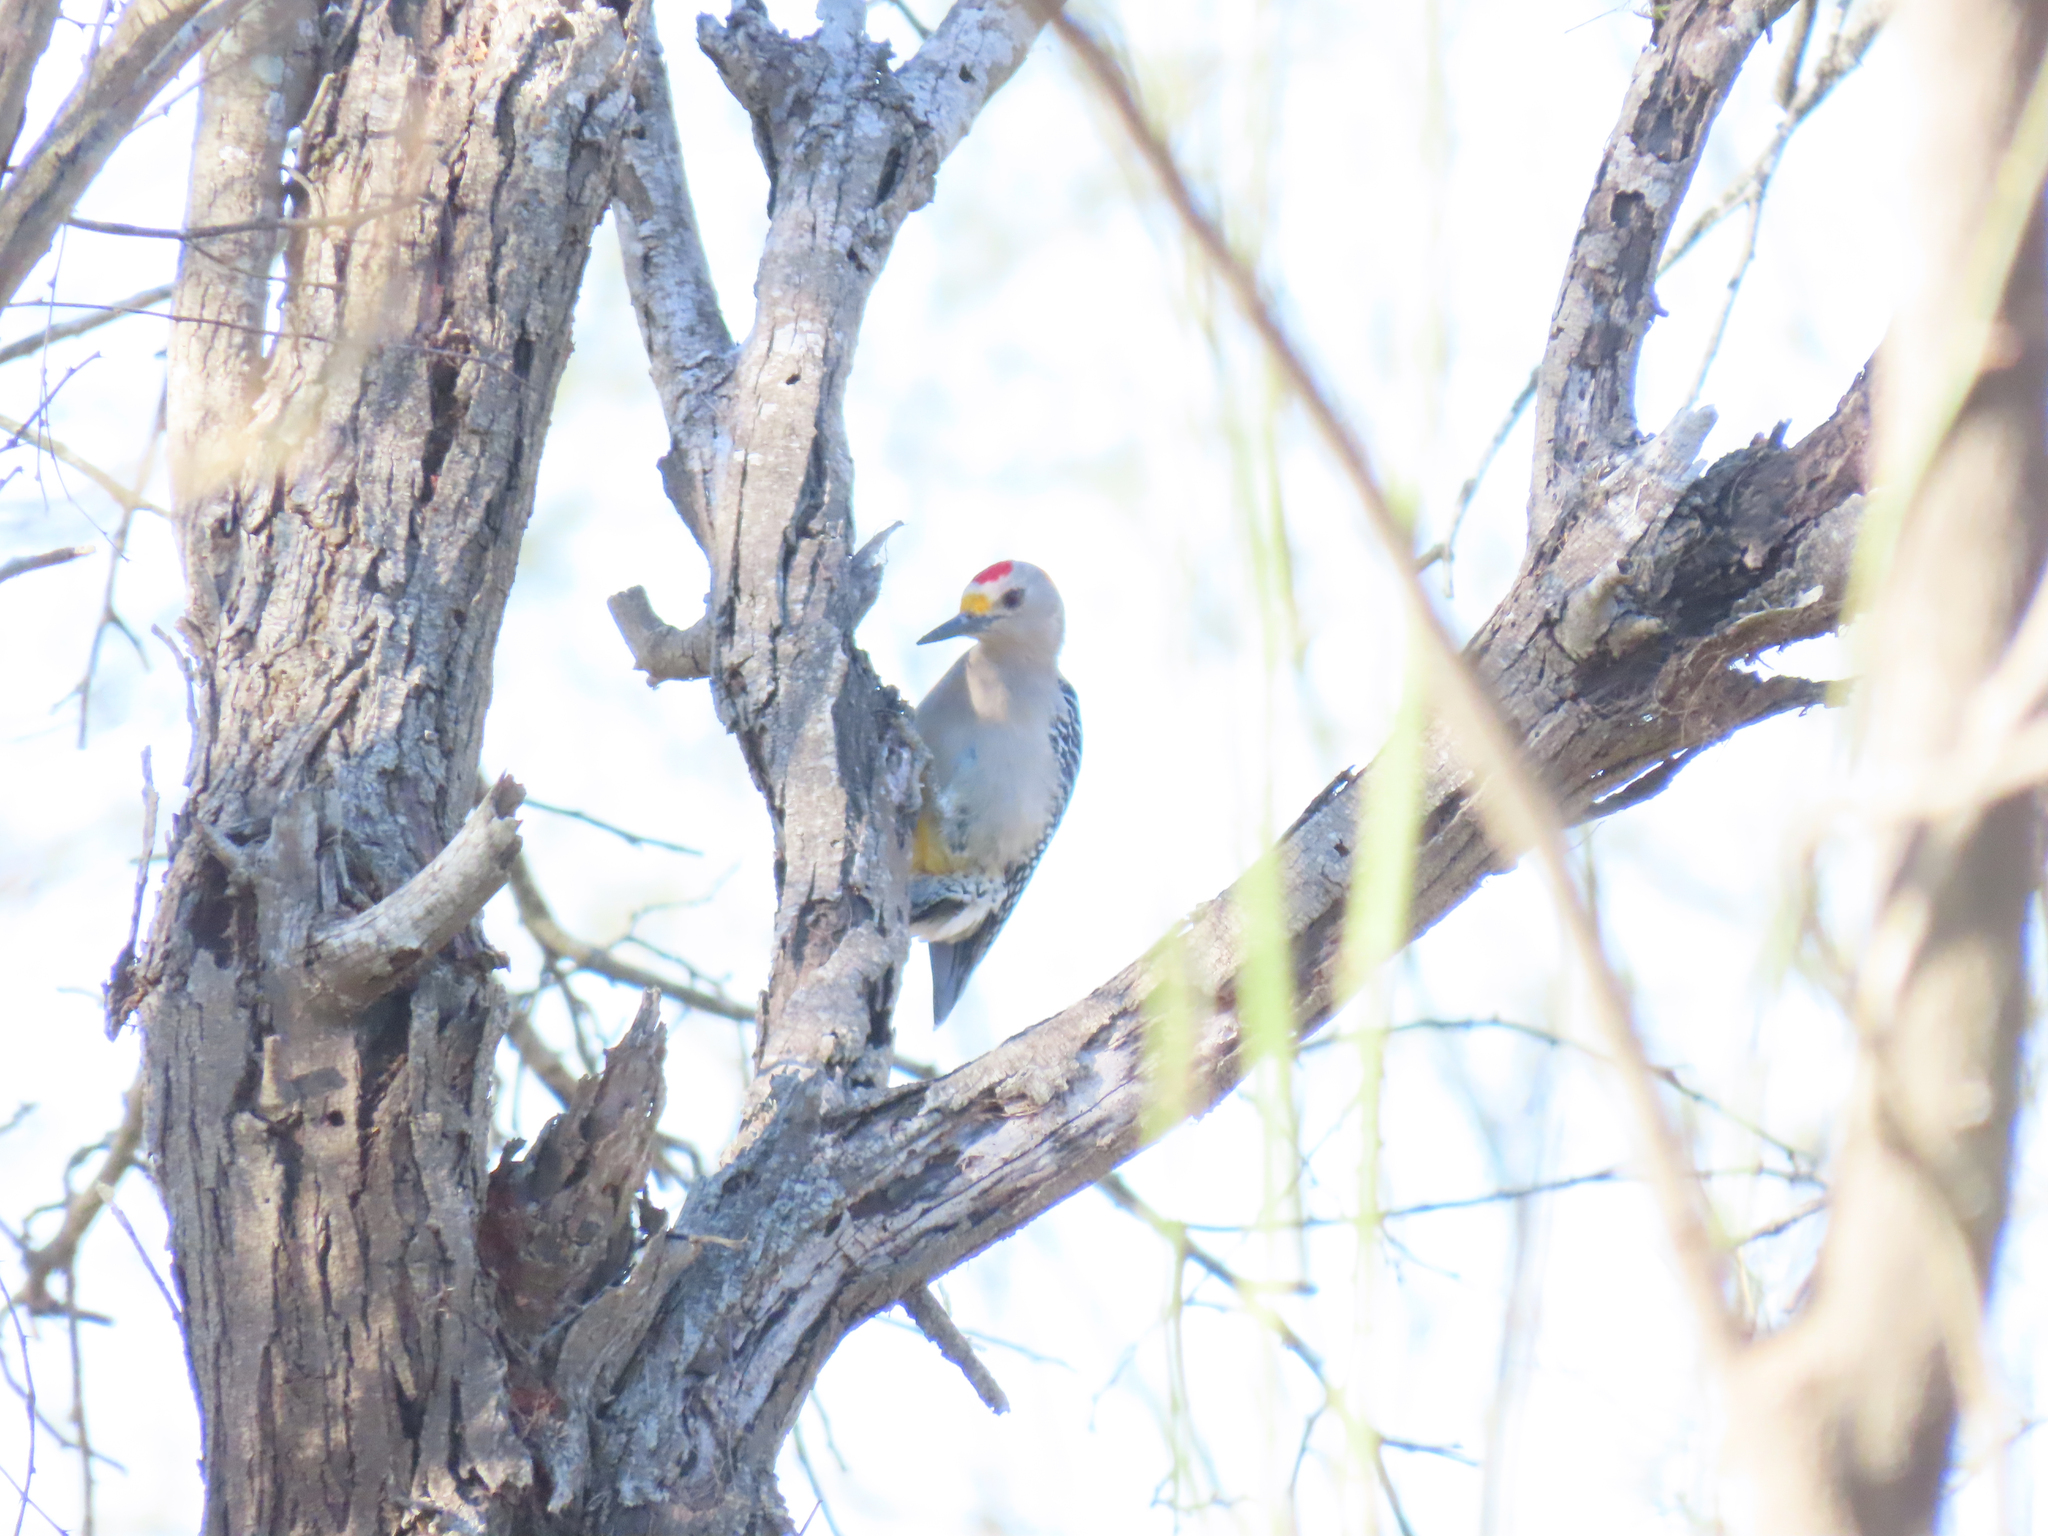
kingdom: Animalia
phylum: Chordata
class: Aves
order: Piciformes
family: Picidae
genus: Melanerpes
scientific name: Melanerpes aurifrons
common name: Golden-fronted woodpecker
